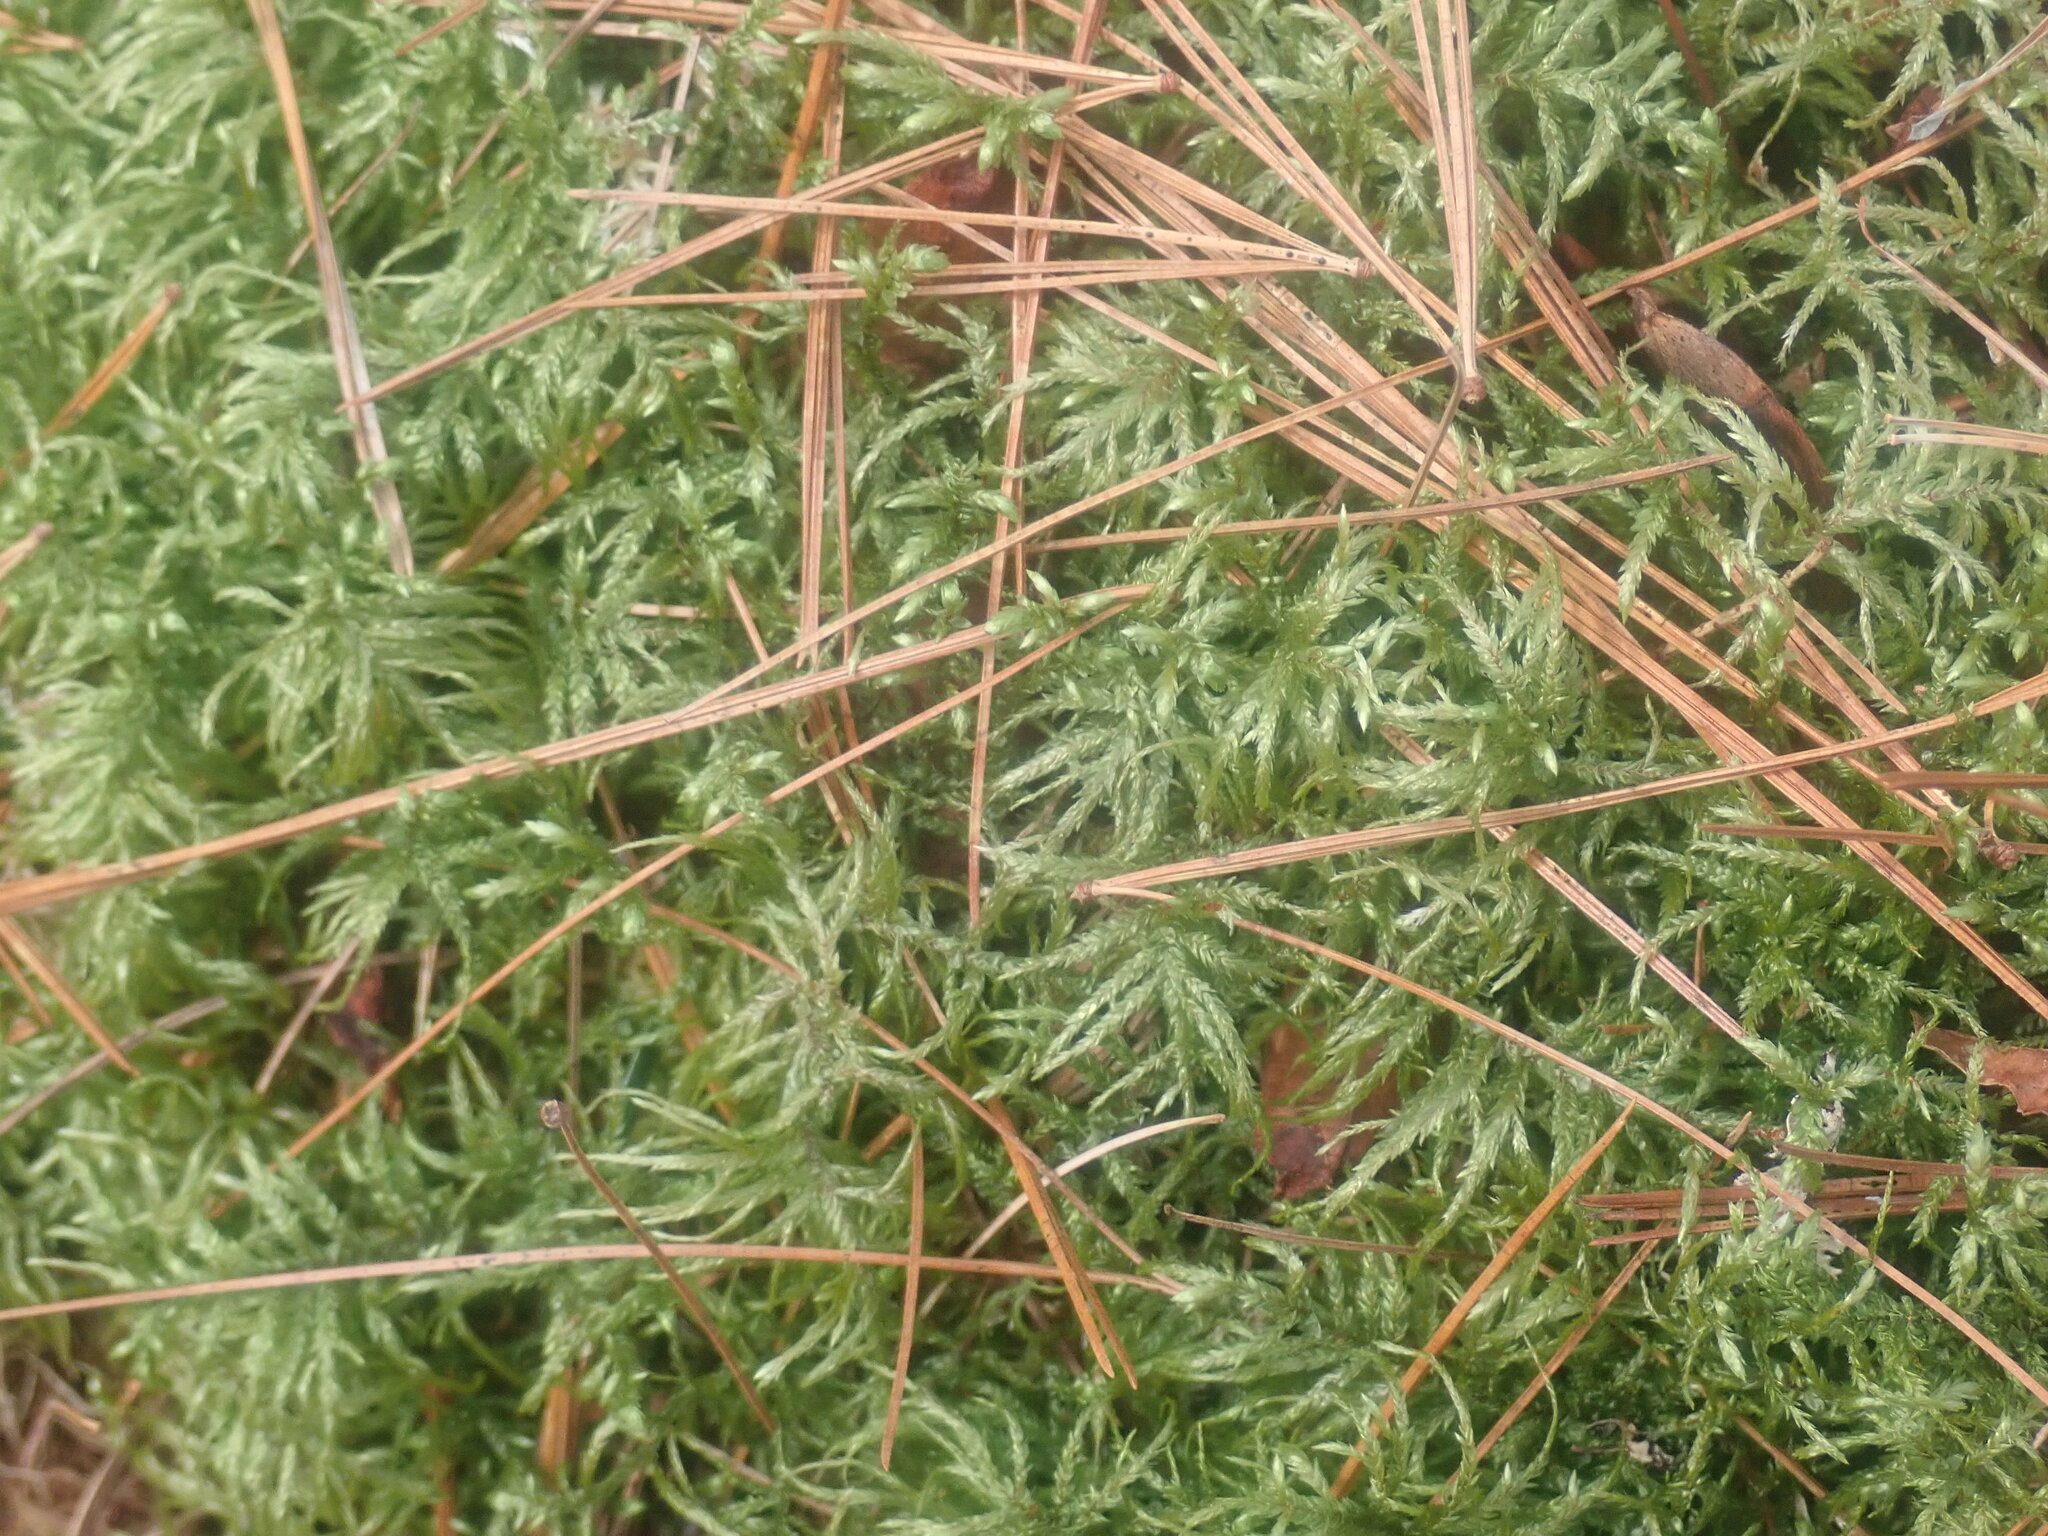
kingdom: Plantae
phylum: Bryophyta
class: Bryopsida
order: Hypnales
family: Hylocomiaceae
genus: Pleurozium
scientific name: Pleurozium schreberi
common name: Red-stemmed feather moss
